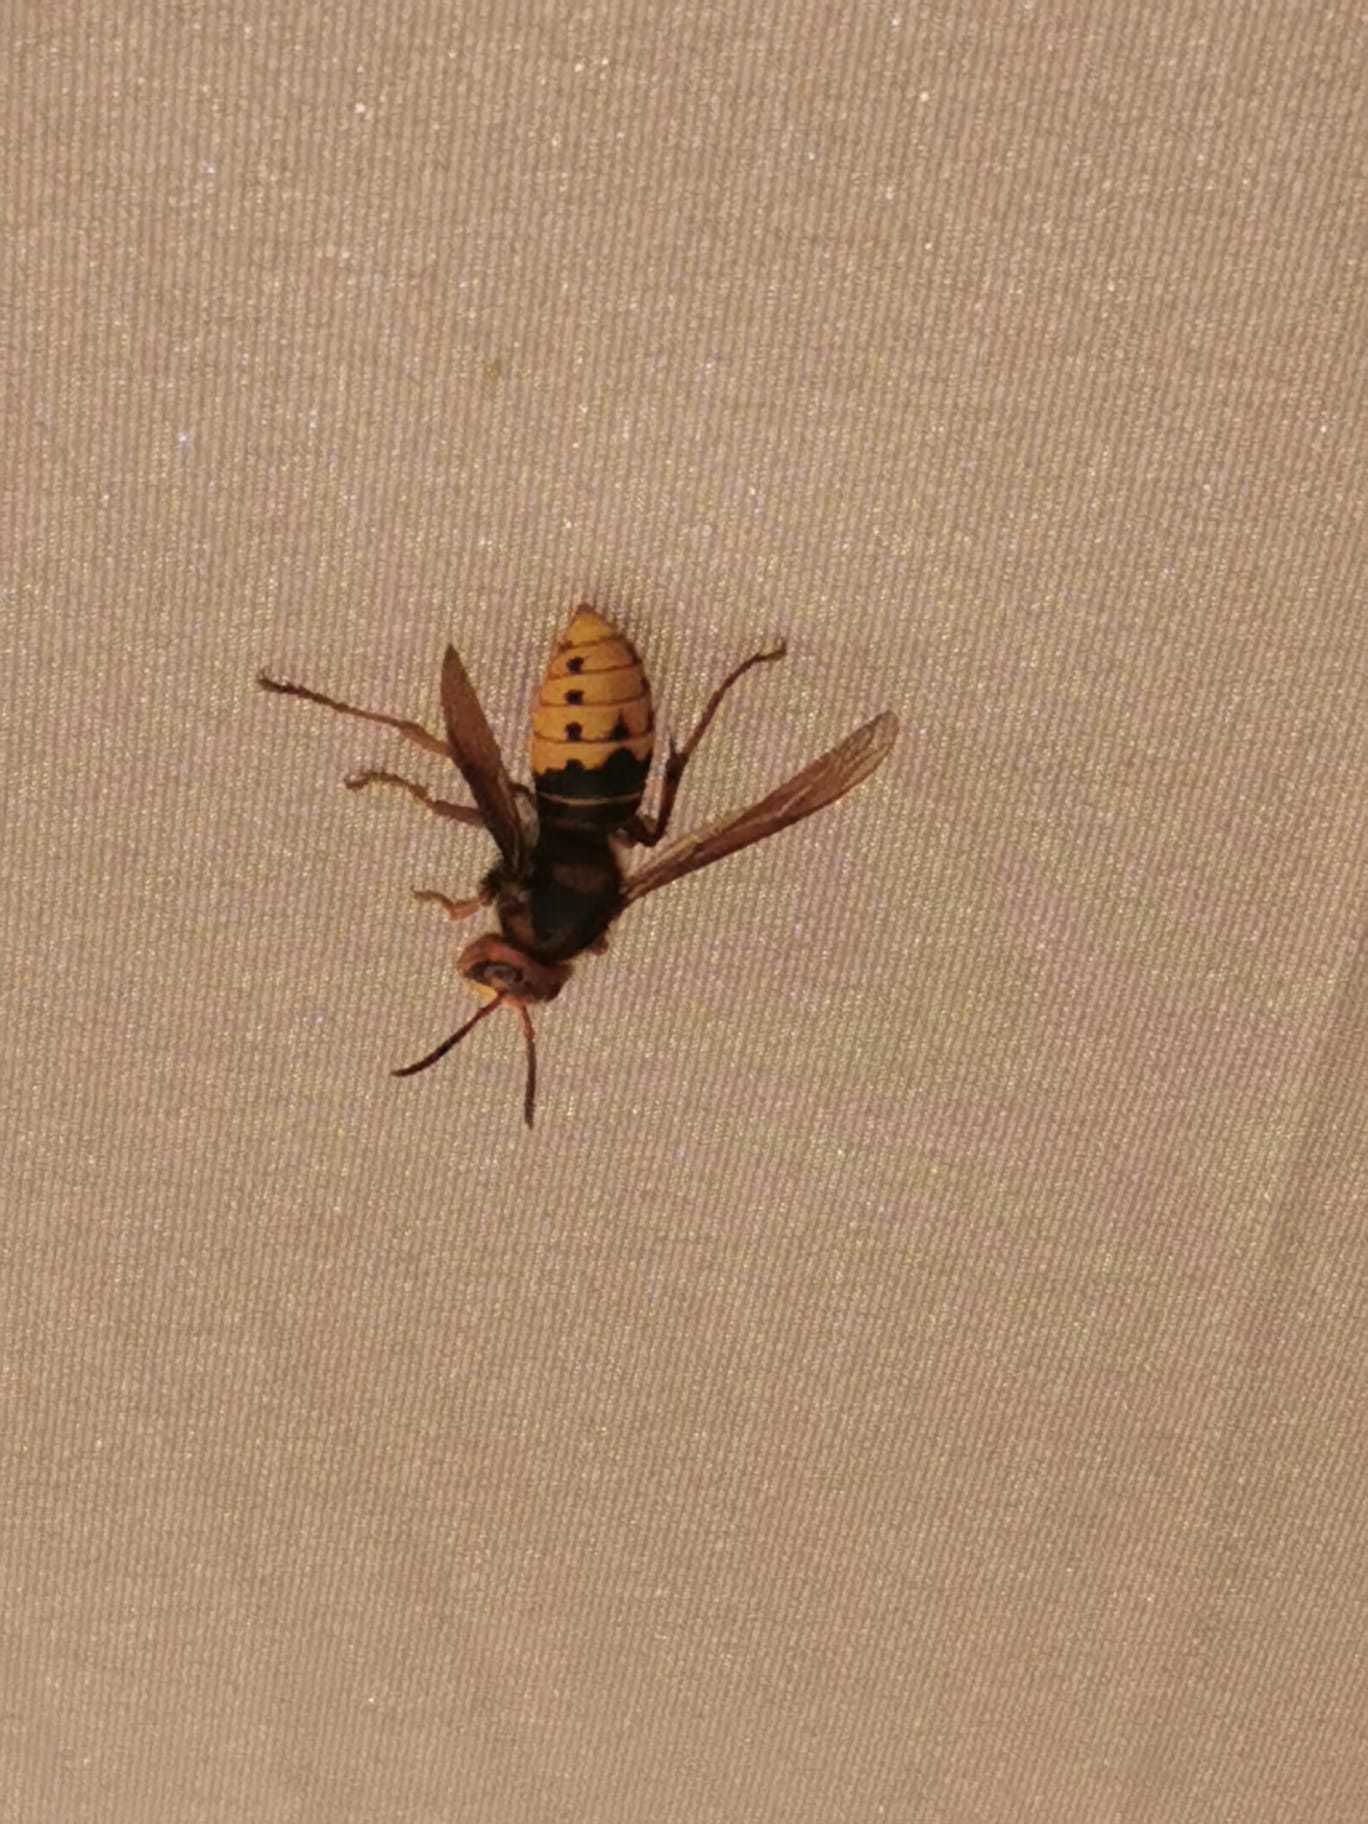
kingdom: Animalia
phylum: Arthropoda
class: Insecta
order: Hymenoptera
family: Vespidae
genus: Vespa
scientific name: Vespa crabro
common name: Hornet
